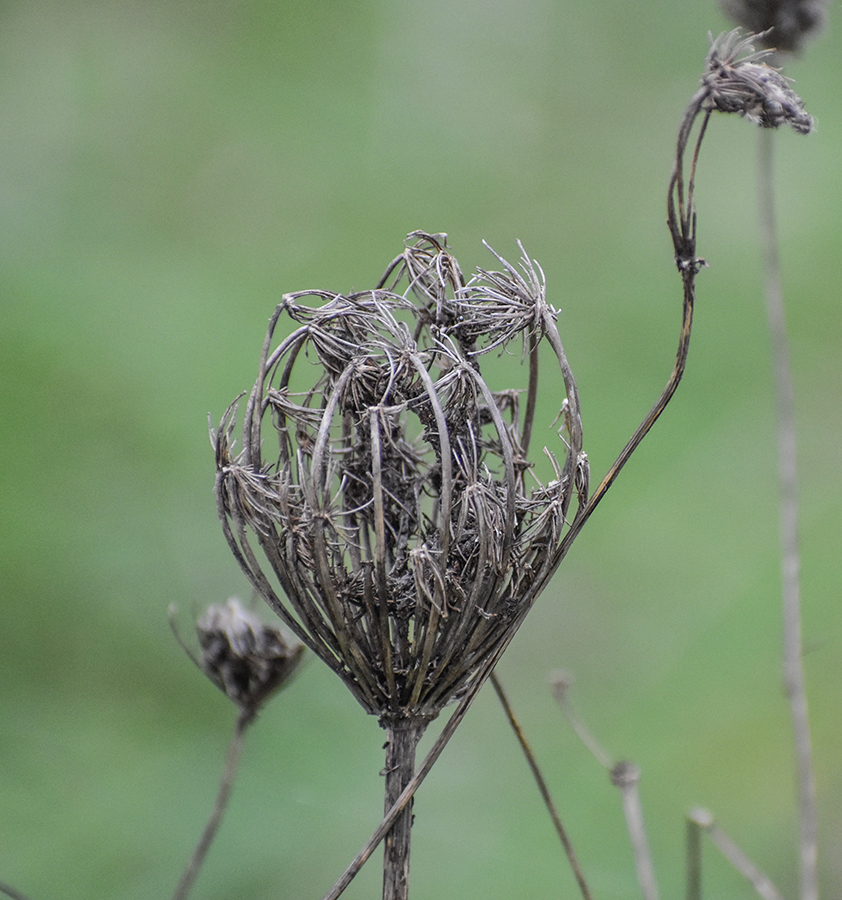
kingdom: Plantae
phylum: Tracheophyta
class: Magnoliopsida
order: Apiales
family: Apiaceae
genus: Daucus
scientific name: Daucus carota
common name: Wild carrot
